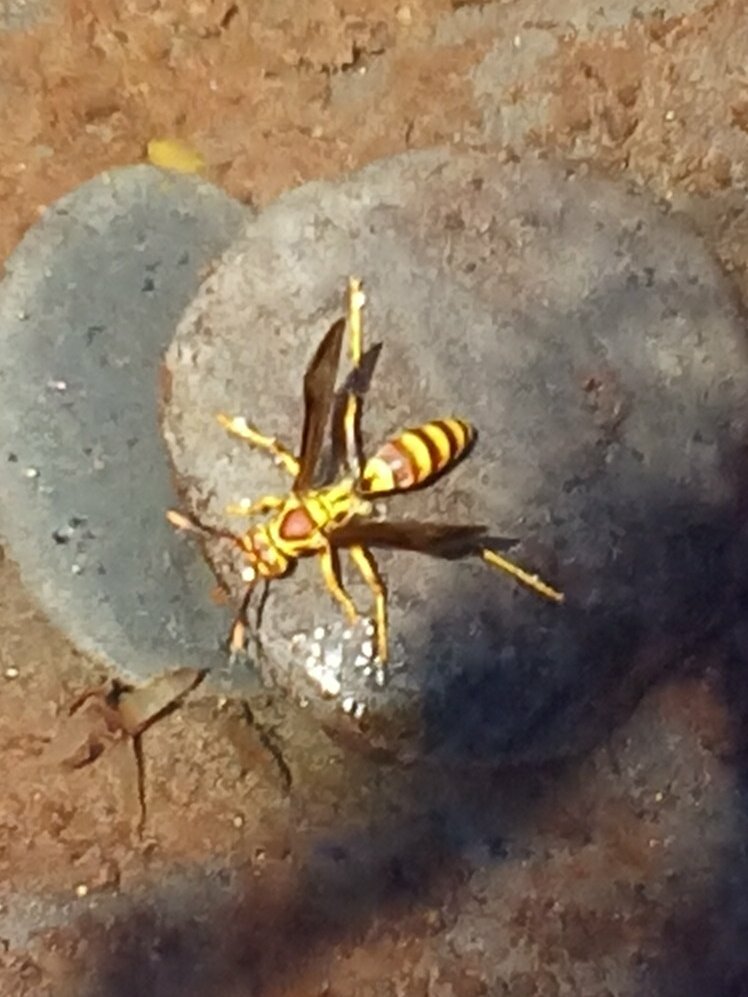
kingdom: Animalia
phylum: Arthropoda
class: Insecta
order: Hymenoptera
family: Eumenidae
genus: Polistes
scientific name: Polistes exclamans
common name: Paper wasp
